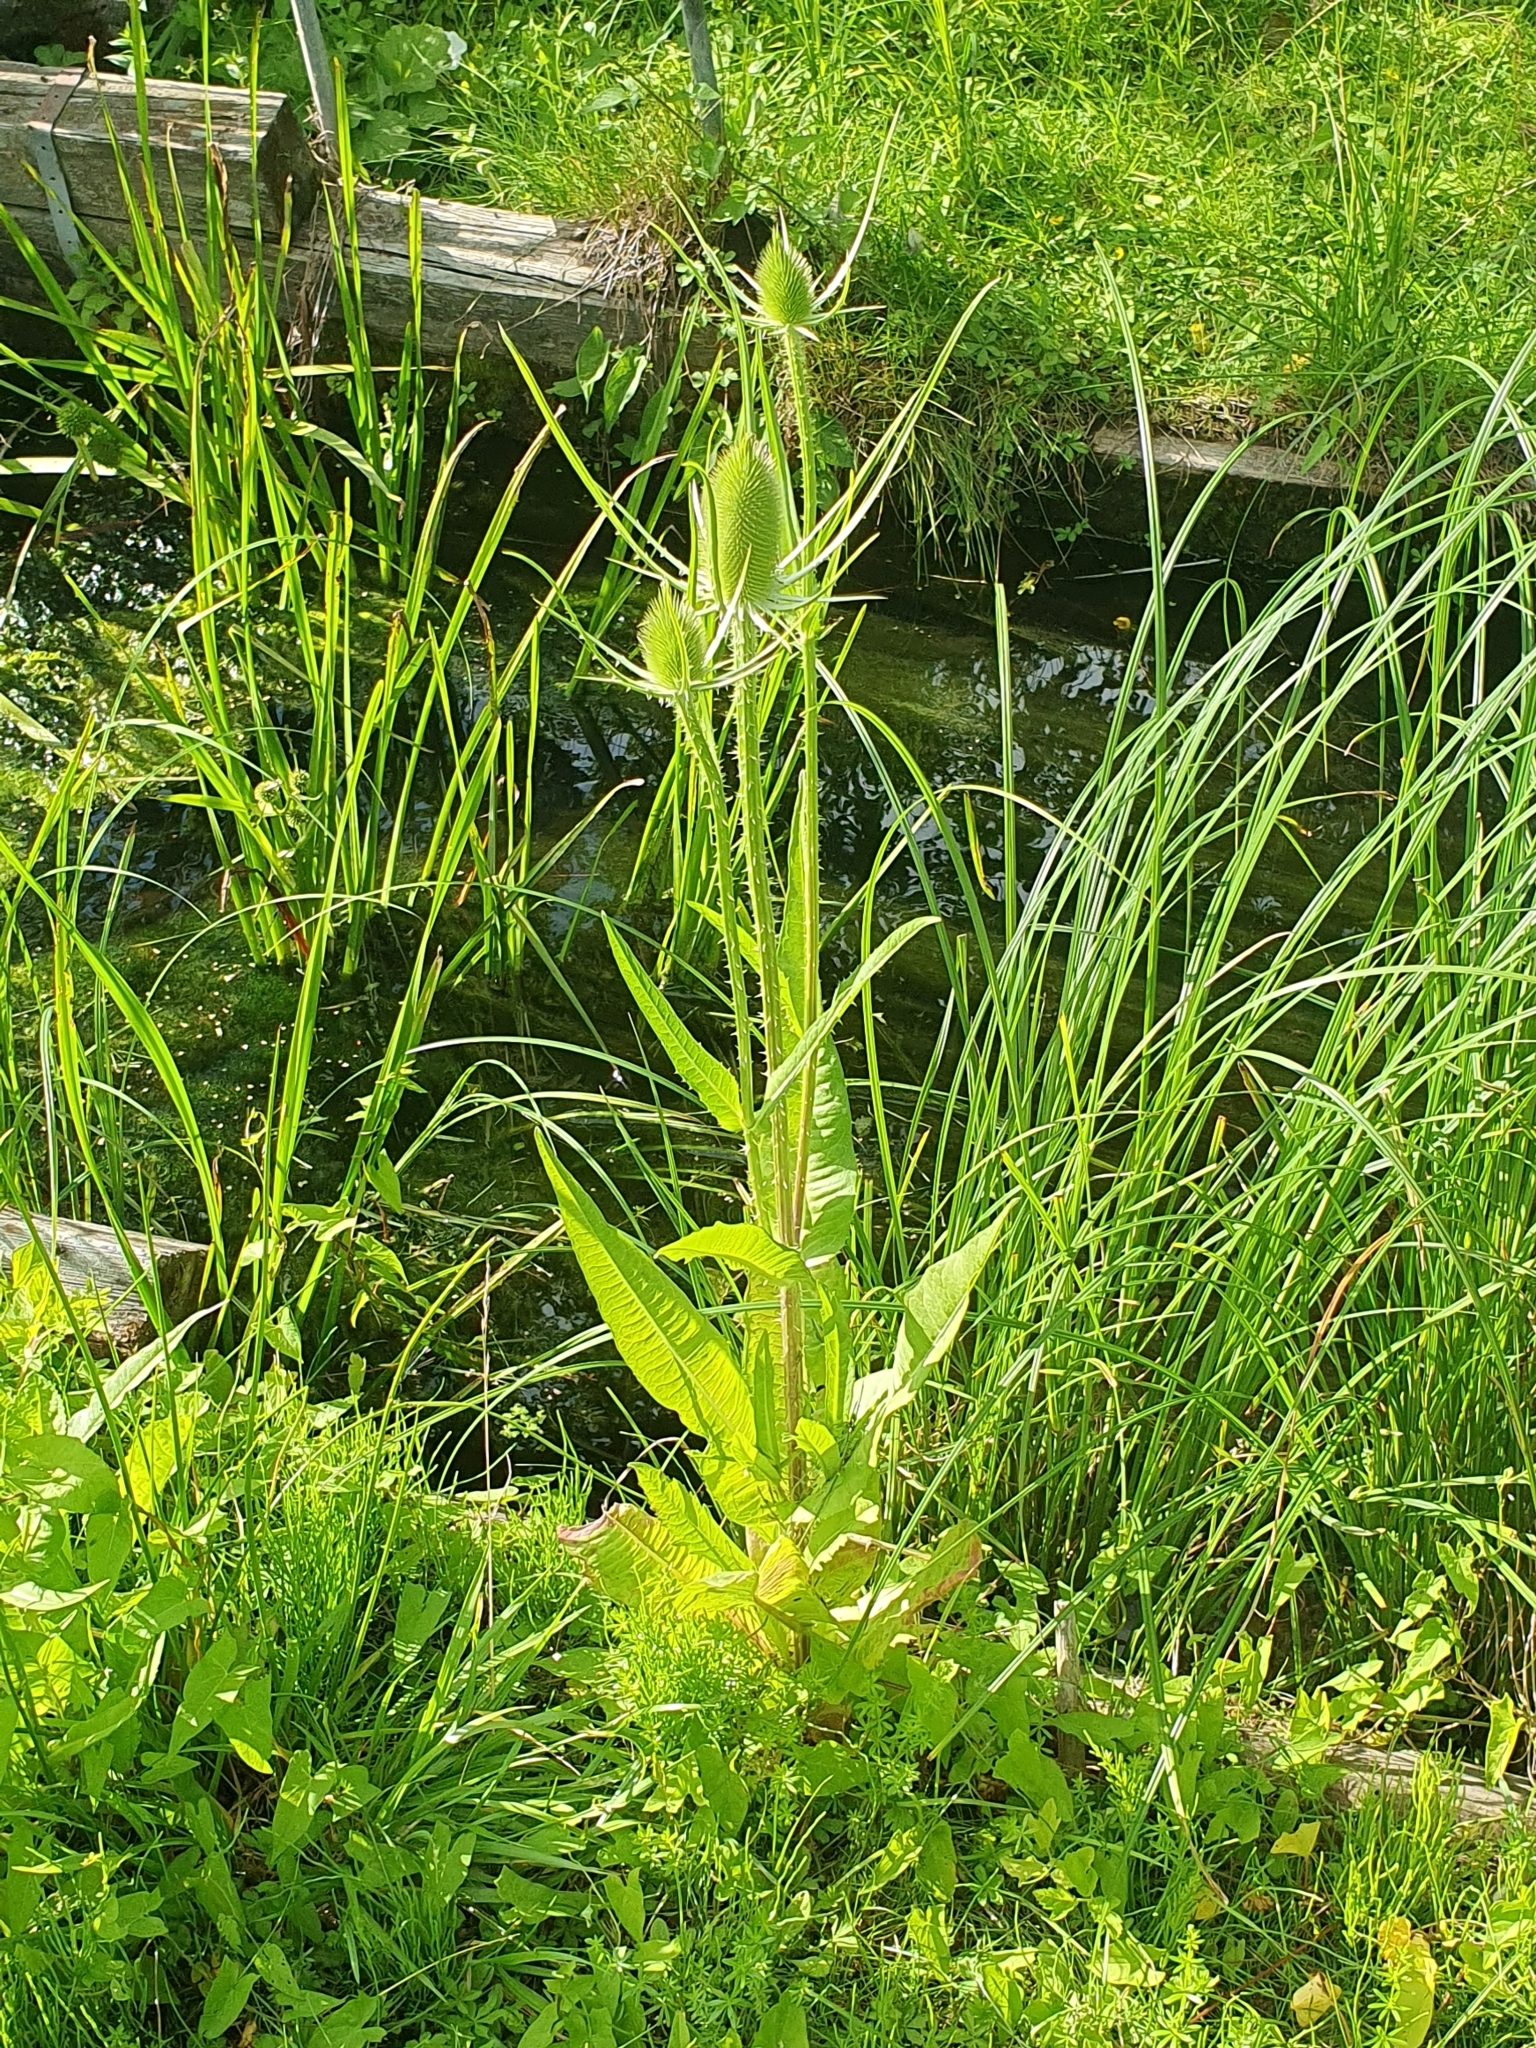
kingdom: Plantae
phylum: Tracheophyta
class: Magnoliopsida
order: Dipsacales
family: Caprifoliaceae
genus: Dipsacus
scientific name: Dipsacus fullonum
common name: Teasel
